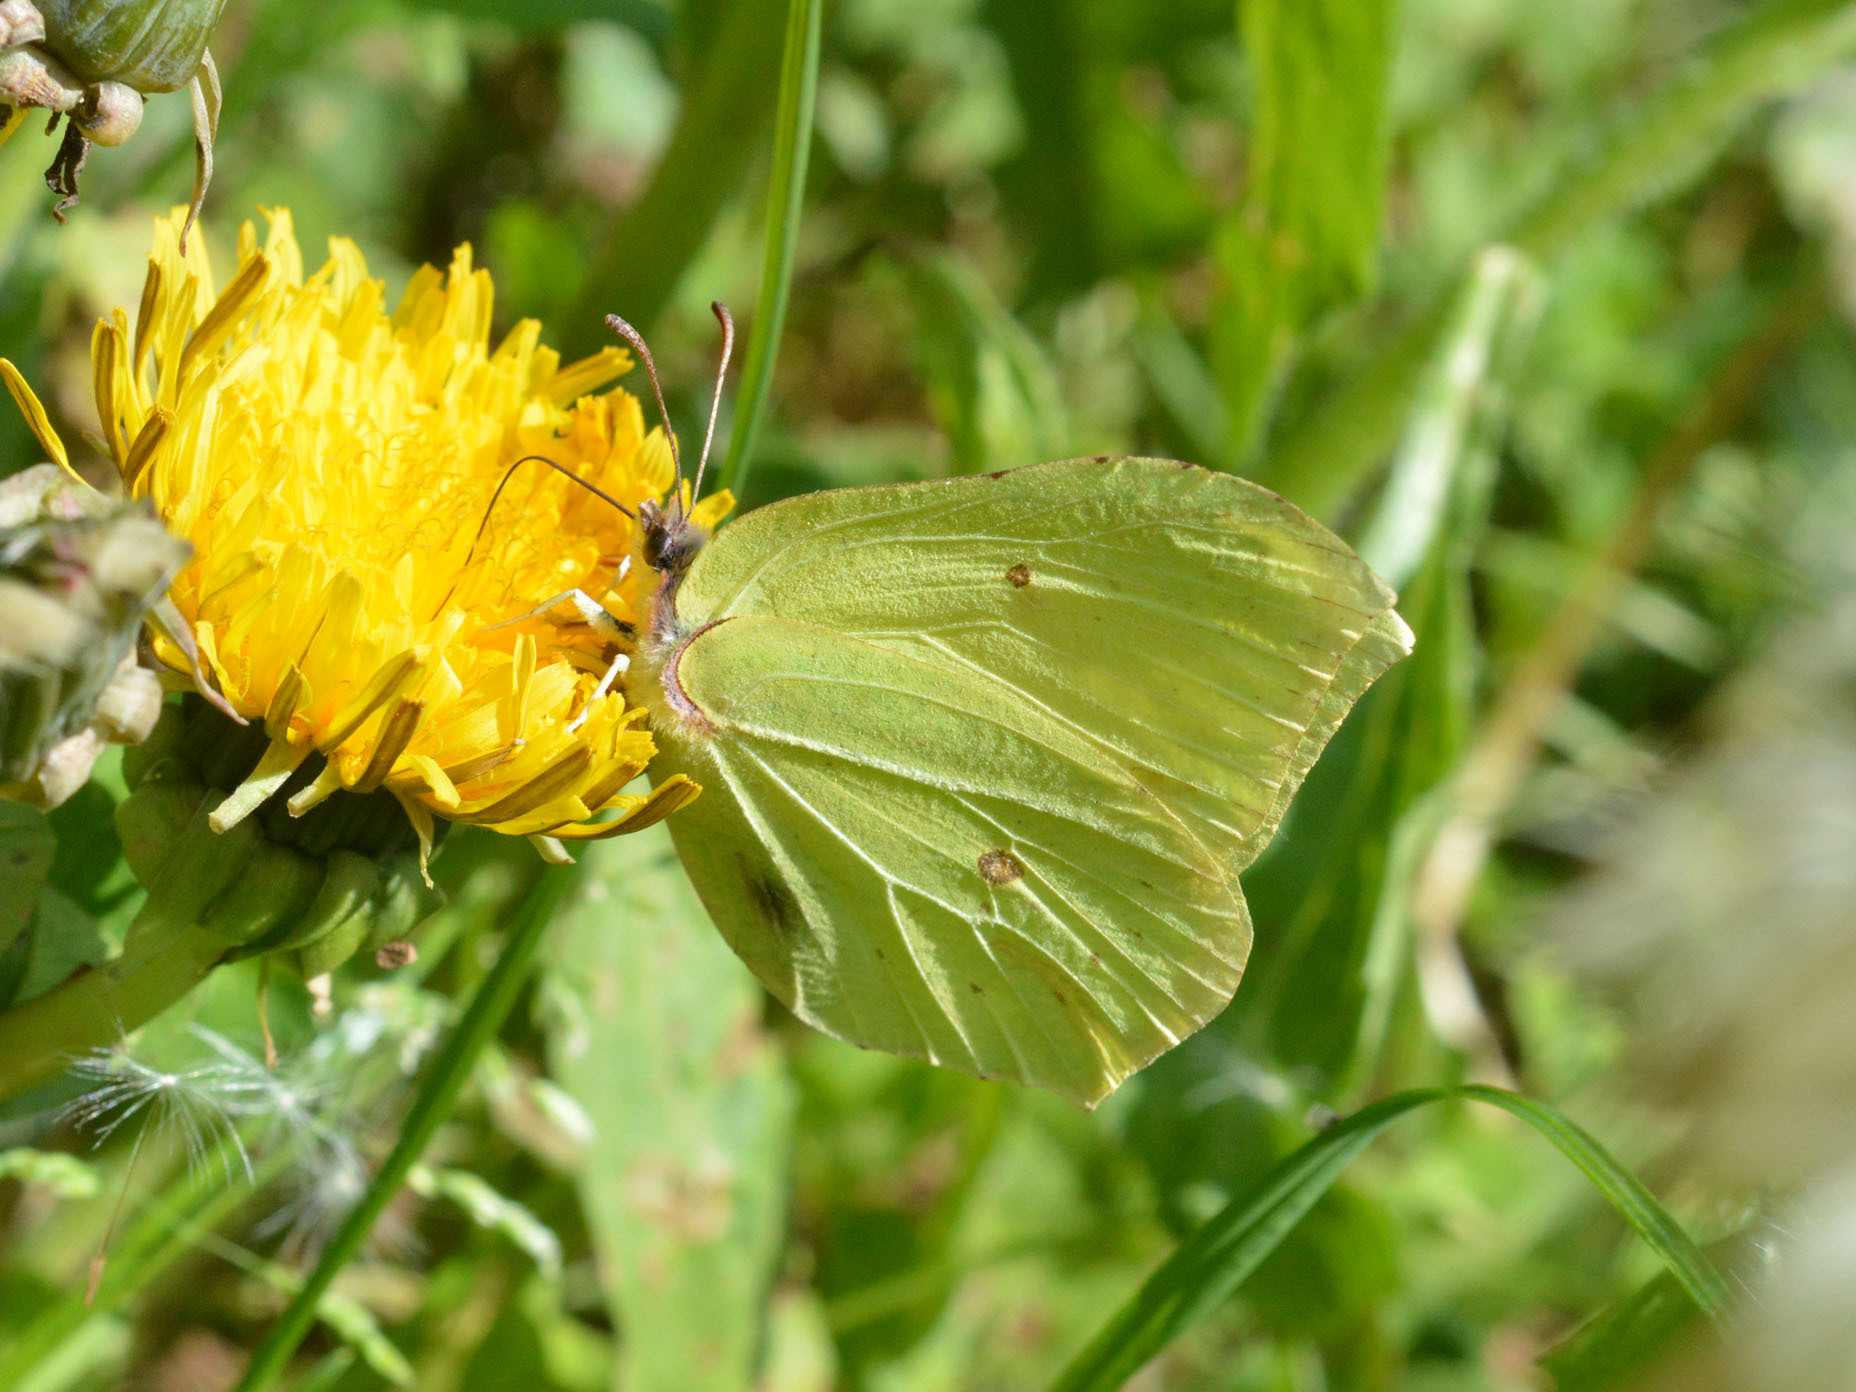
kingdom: Animalia
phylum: Arthropoda
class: Insecta
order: Lepidoptera
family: Pieridae
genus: Gonepteryx
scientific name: Gonepteryx rhamni
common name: Brimstone
